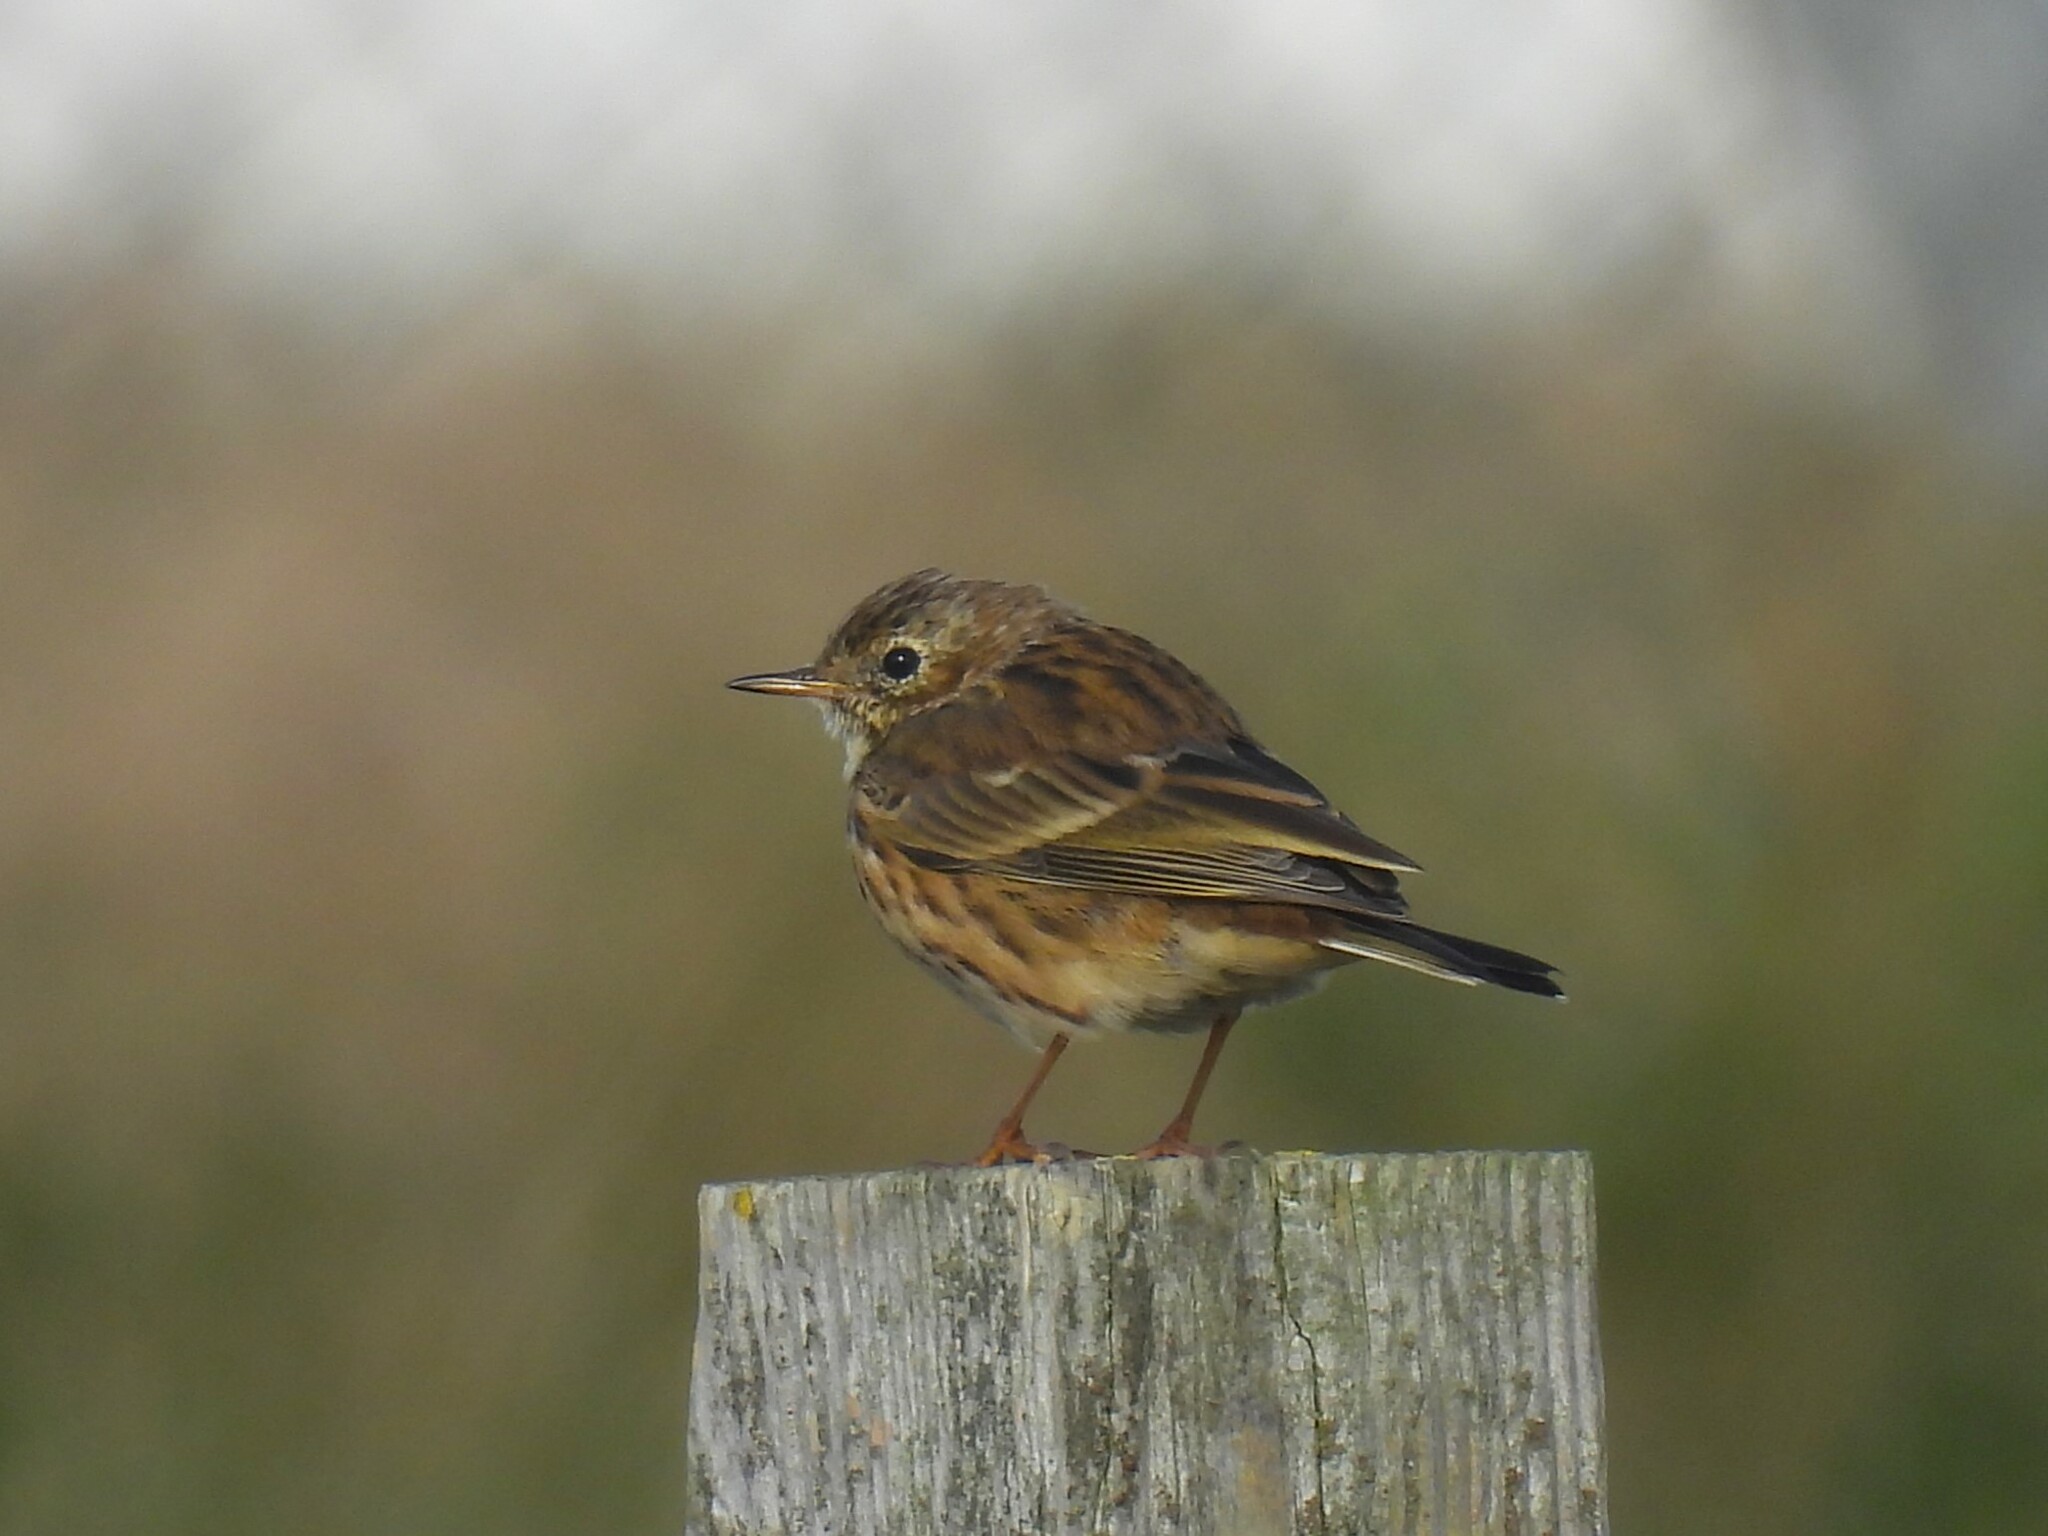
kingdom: Animalia
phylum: Chordata
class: Aves
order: Passeriformes
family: Motacillidae
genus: Anthus
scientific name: Anthus pratensis
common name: Meadow pipit
